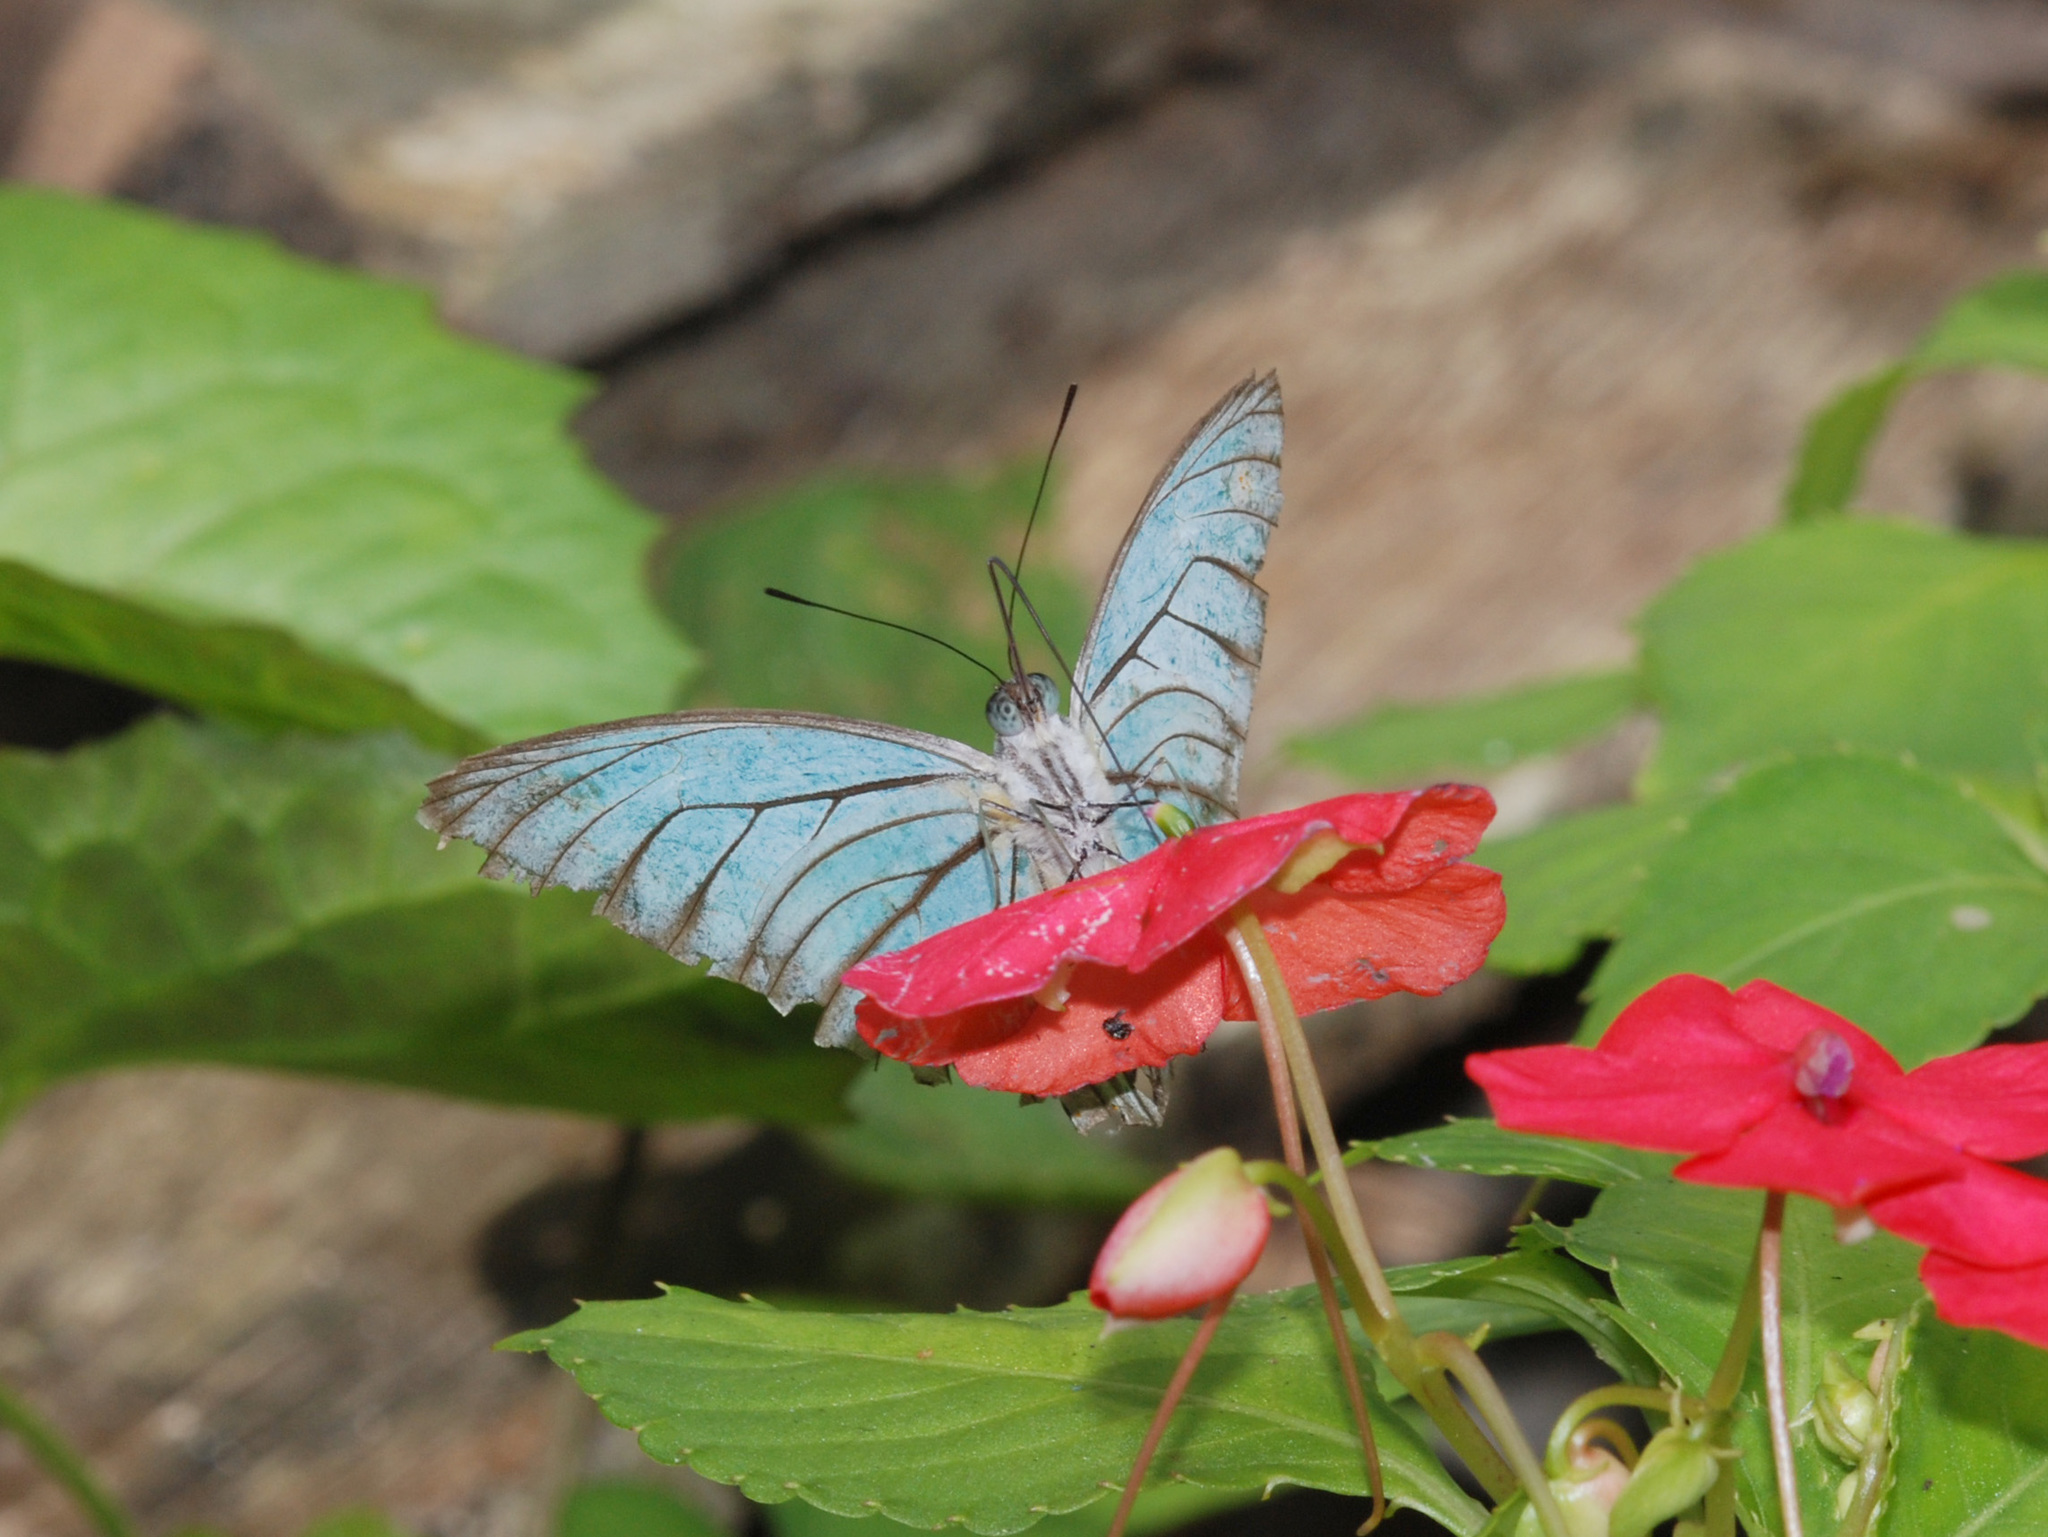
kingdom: Animalia
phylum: Arthropoda
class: Insecta
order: Lepidoptera
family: Pieridae
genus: Pareronia
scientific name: Pareronia valeria
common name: Common wanderer?
